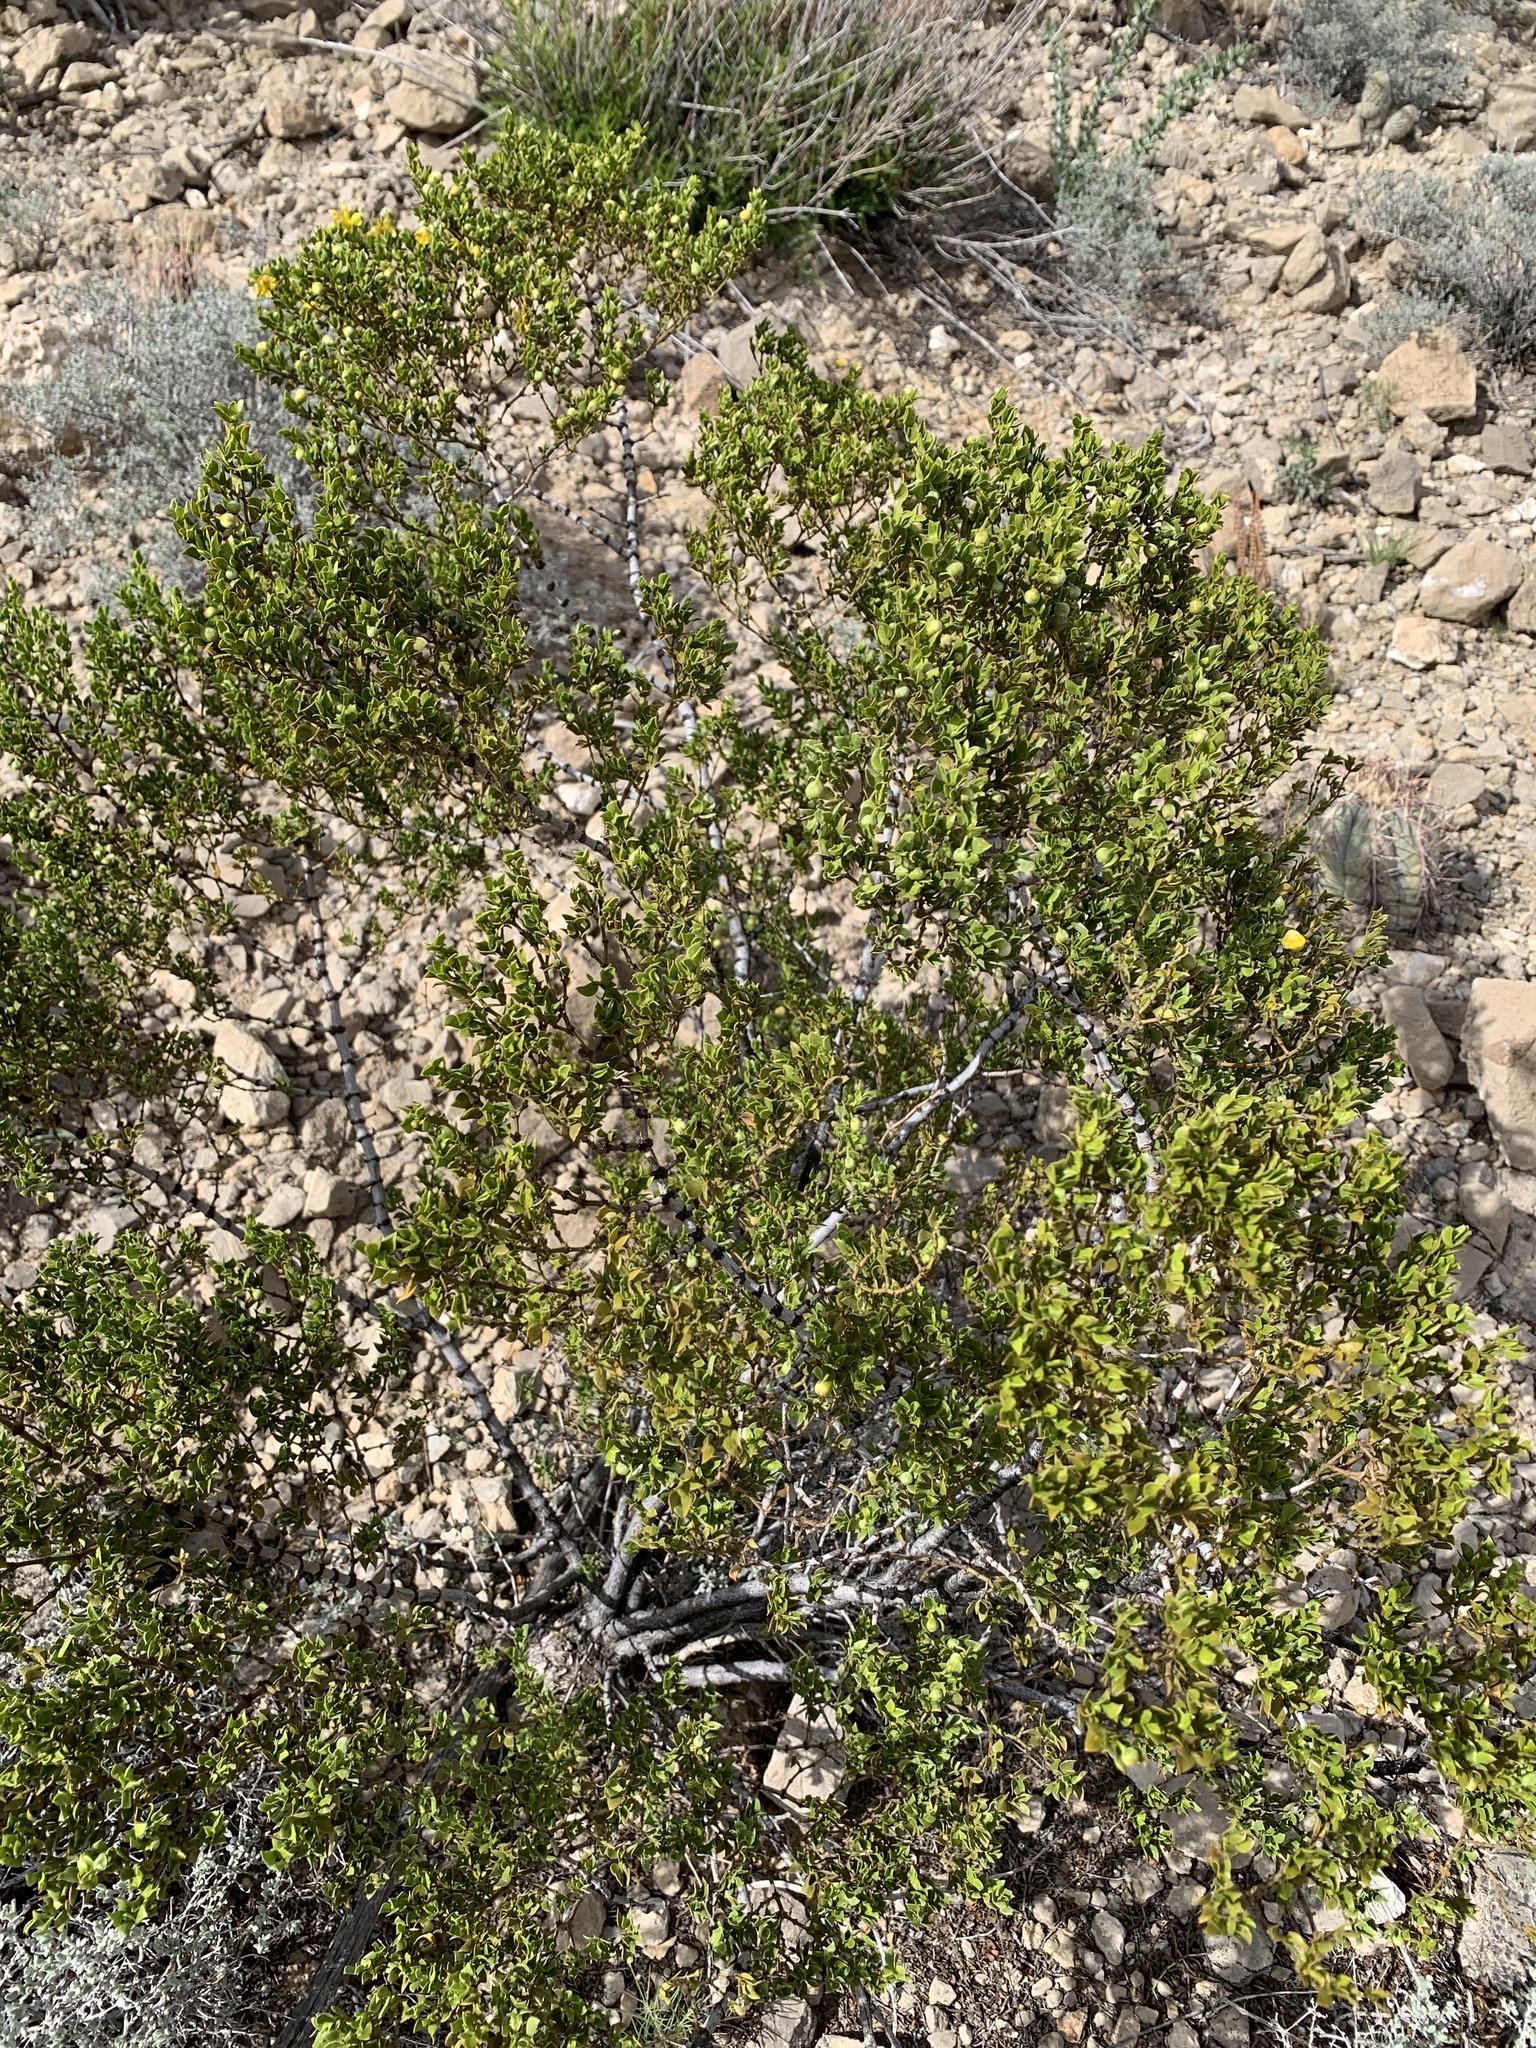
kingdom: Plantae
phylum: Tracheophyta
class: Magnoliopsida
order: Zygophyllales
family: Zygophyllaceae
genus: Larrea
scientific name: Larrea tridentata
